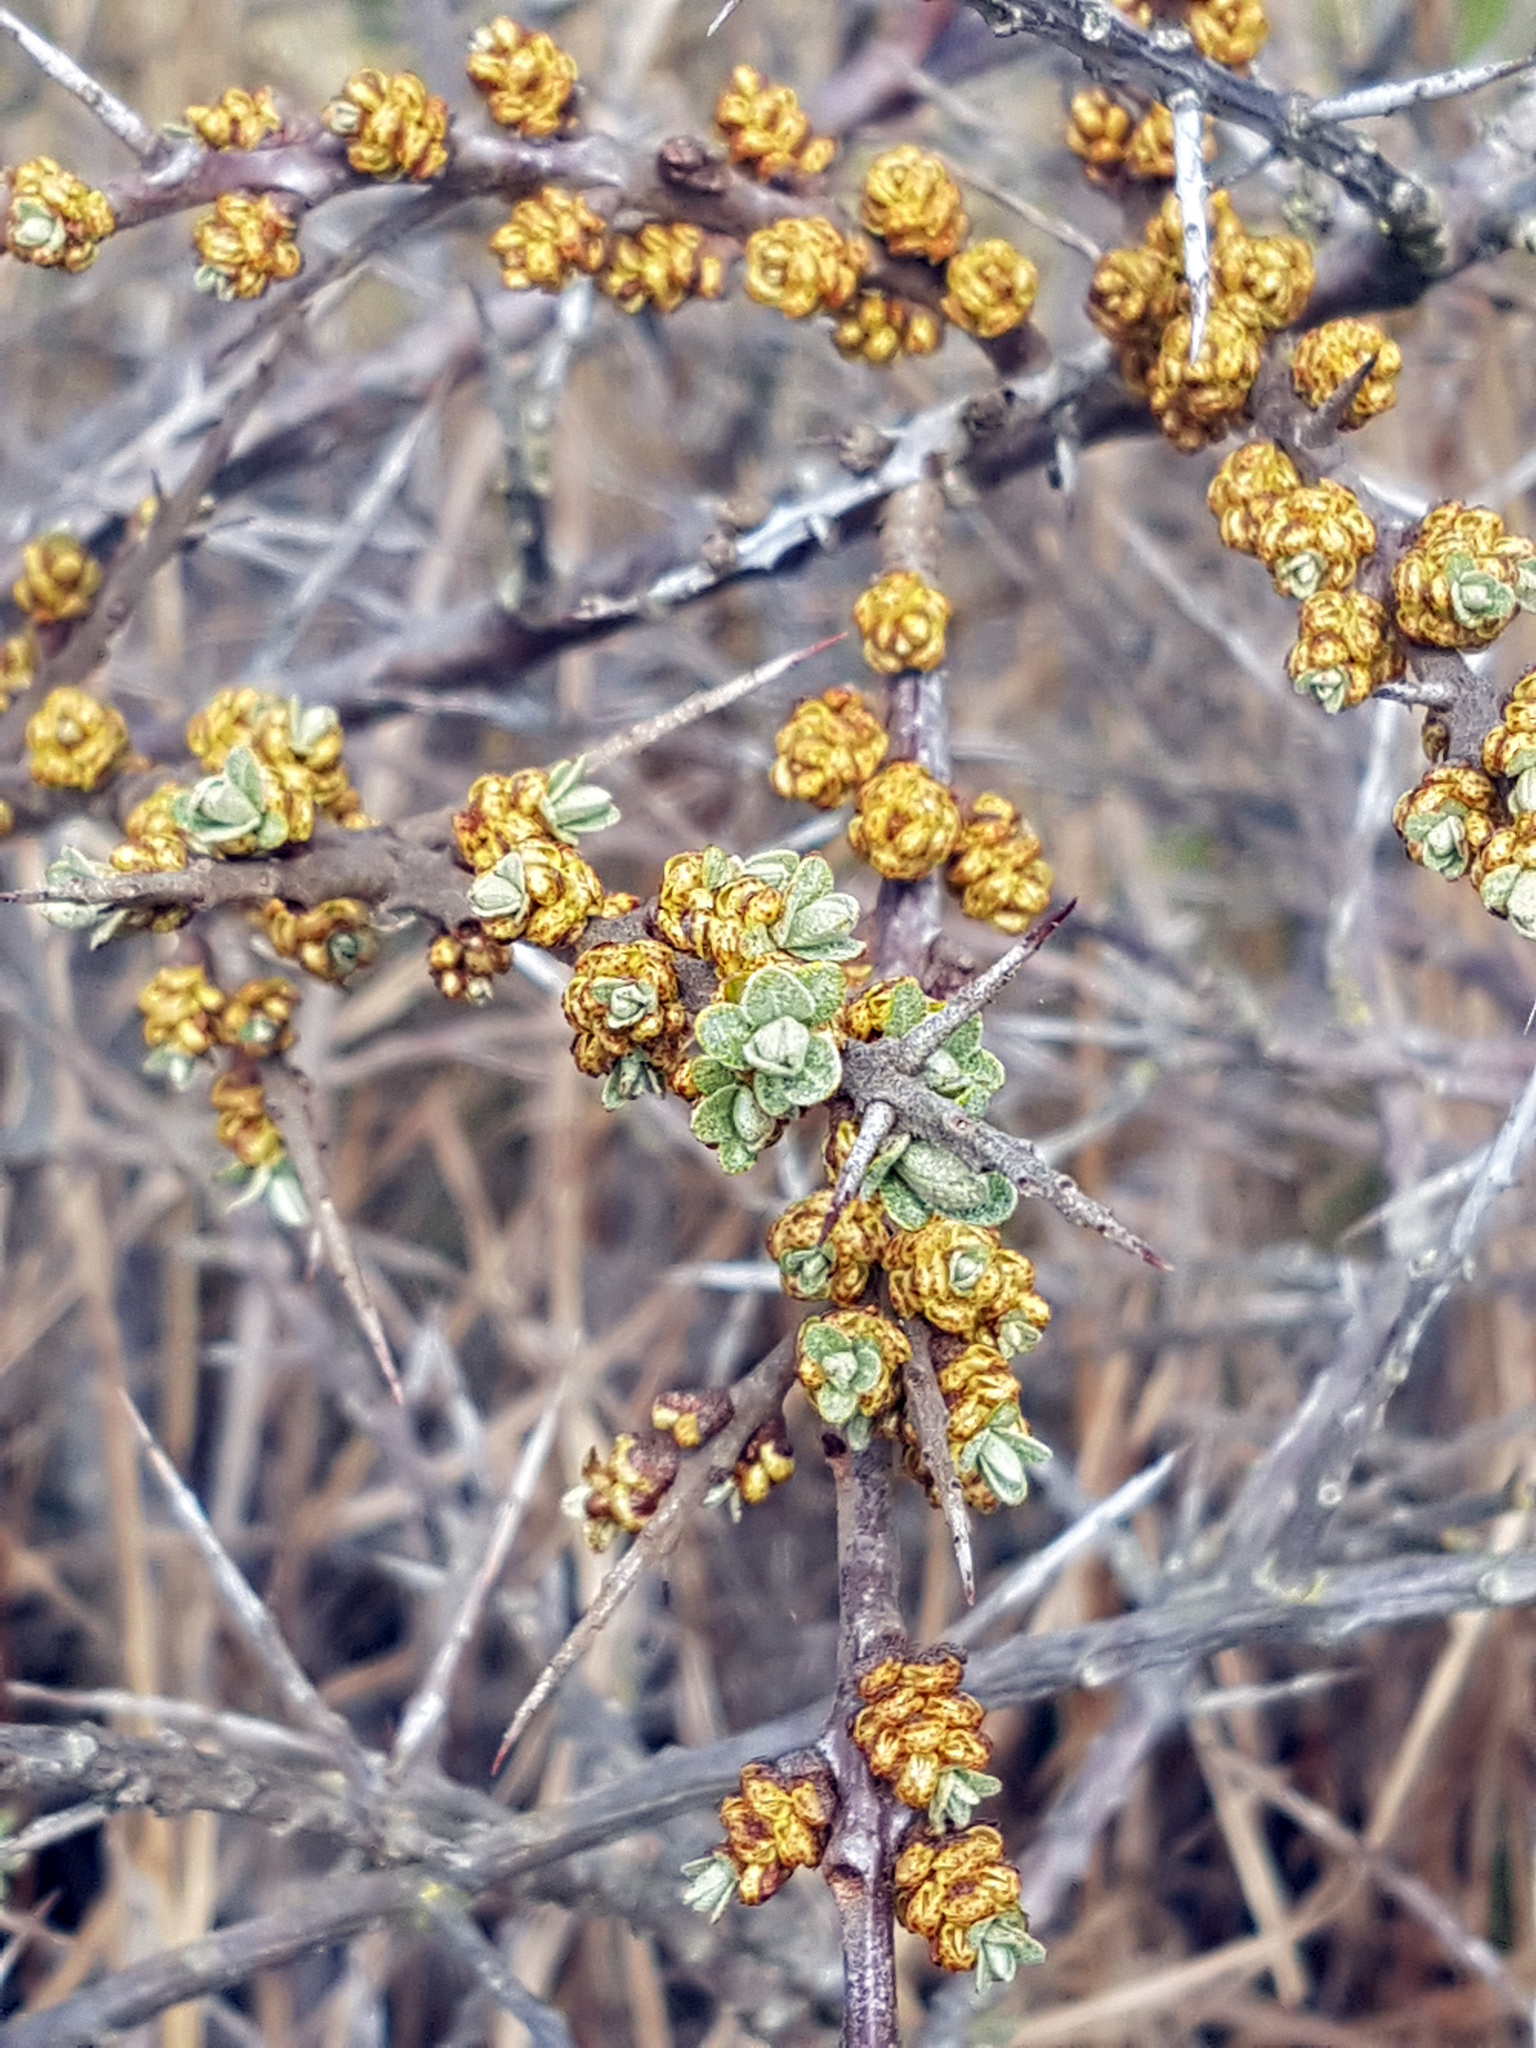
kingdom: Plantae
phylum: Tracheophyta
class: Magnoliopsida
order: Rosales
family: Elaeagnaceae
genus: Hippophae
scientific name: Hippophae rhamnoides
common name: Sea-buckthorn
